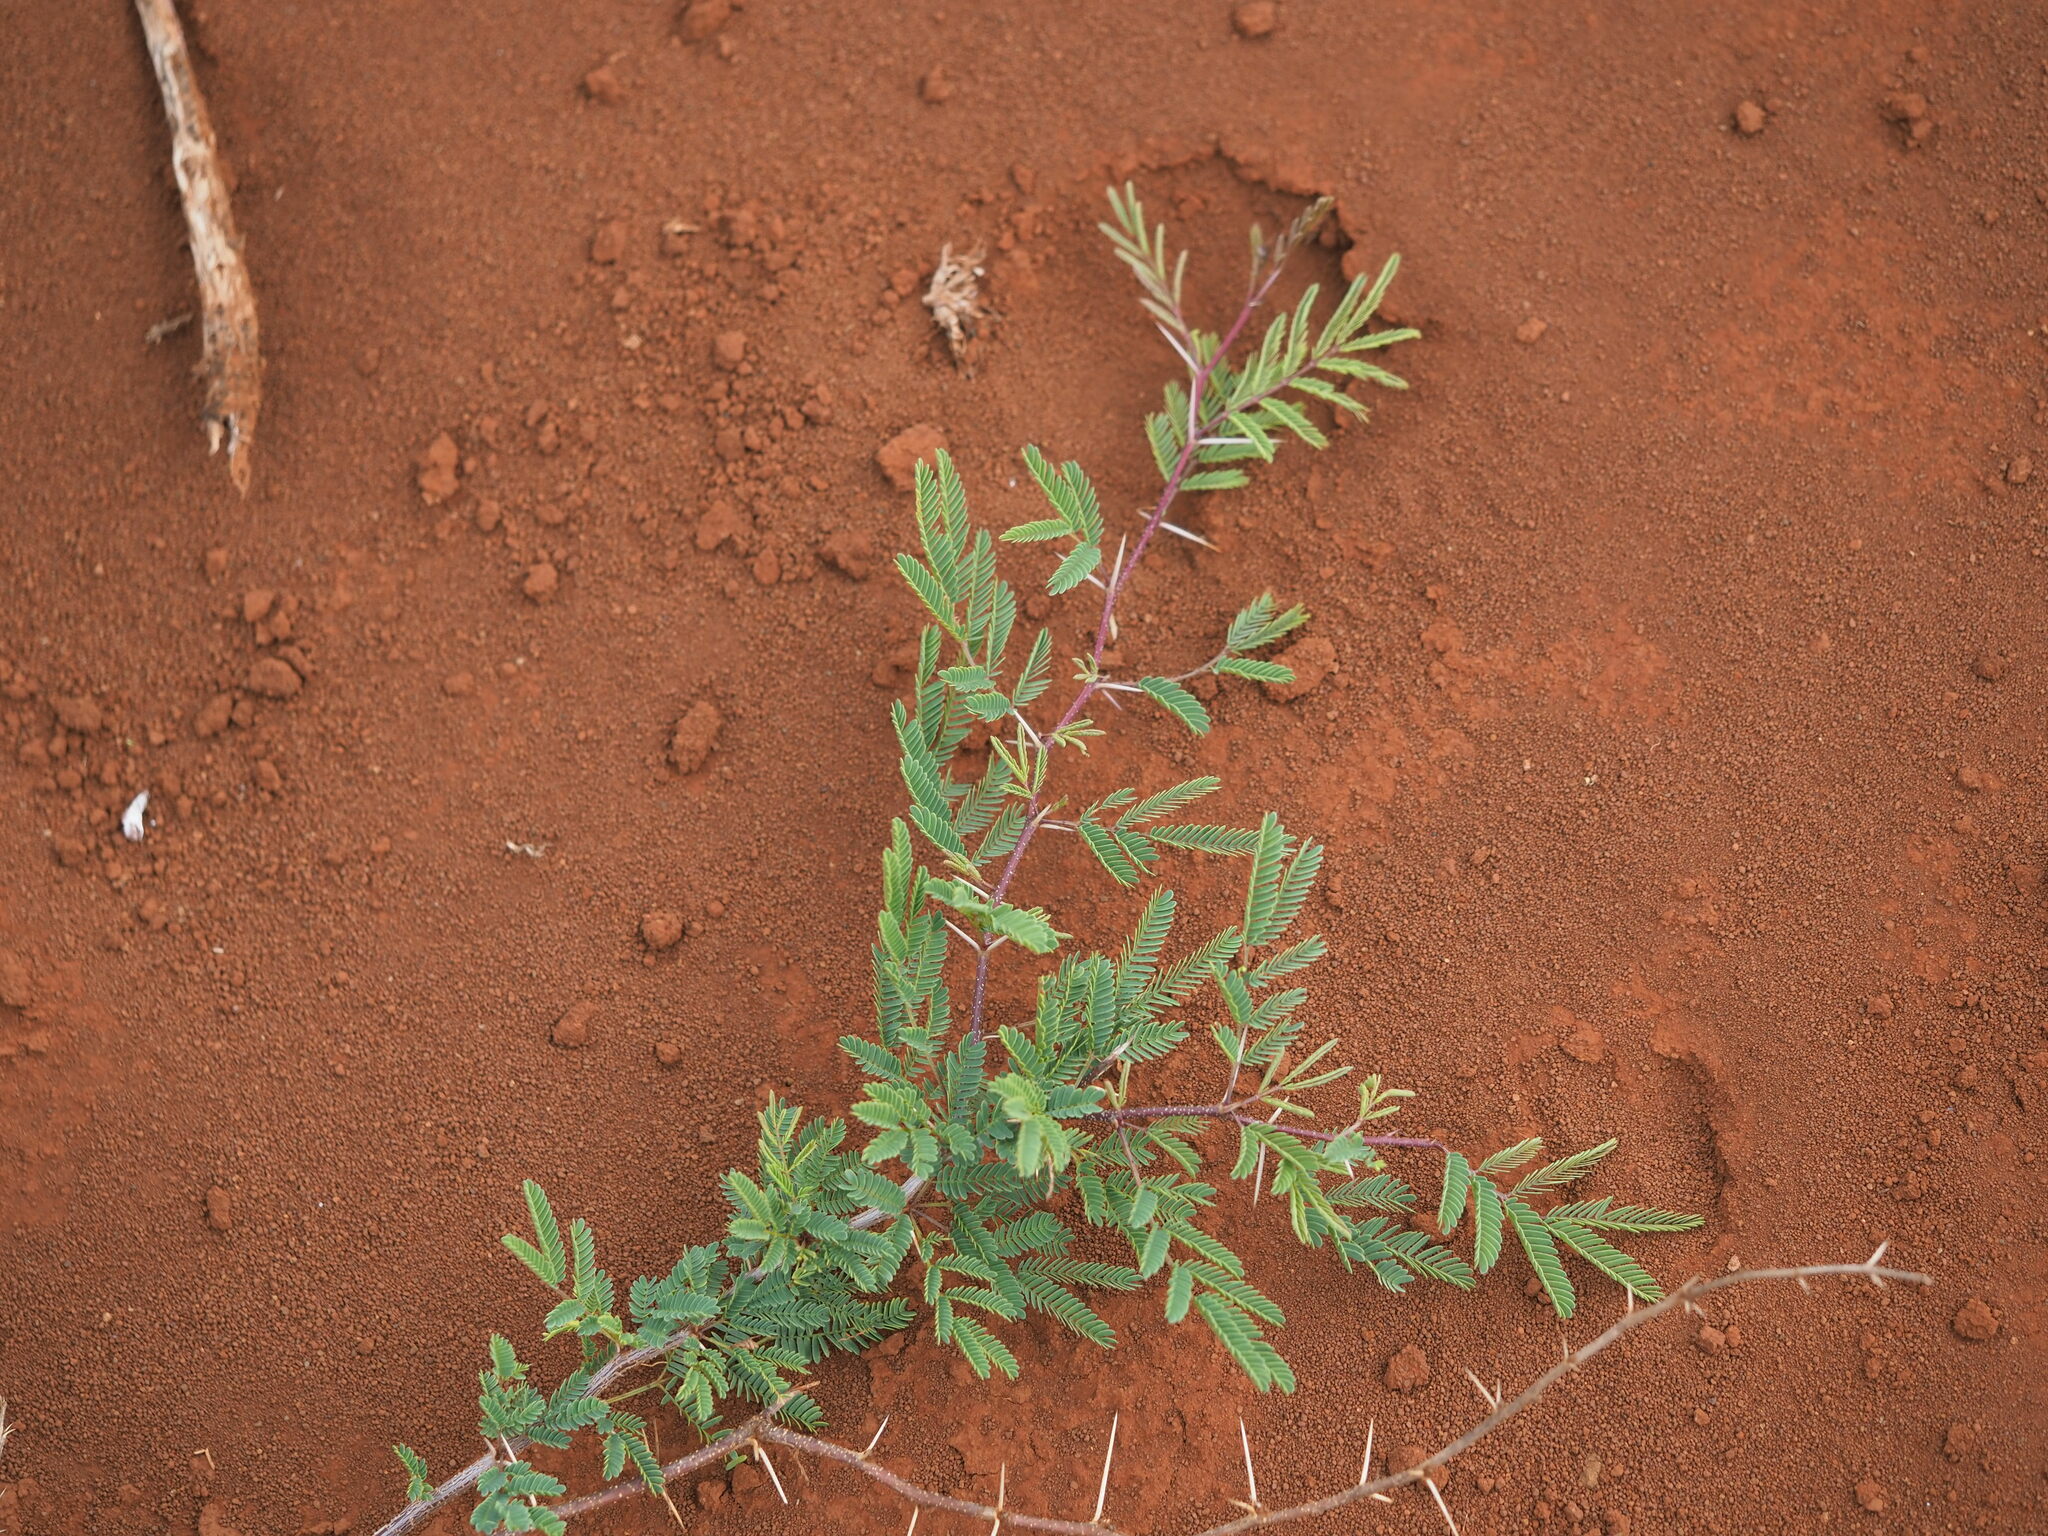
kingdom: Plantae
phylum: Tracheophyta
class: Magnoliopsida
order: Fabales
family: Fabaceae
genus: Vachellia
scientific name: Vachellia farnesiana
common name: Sweet acacia
